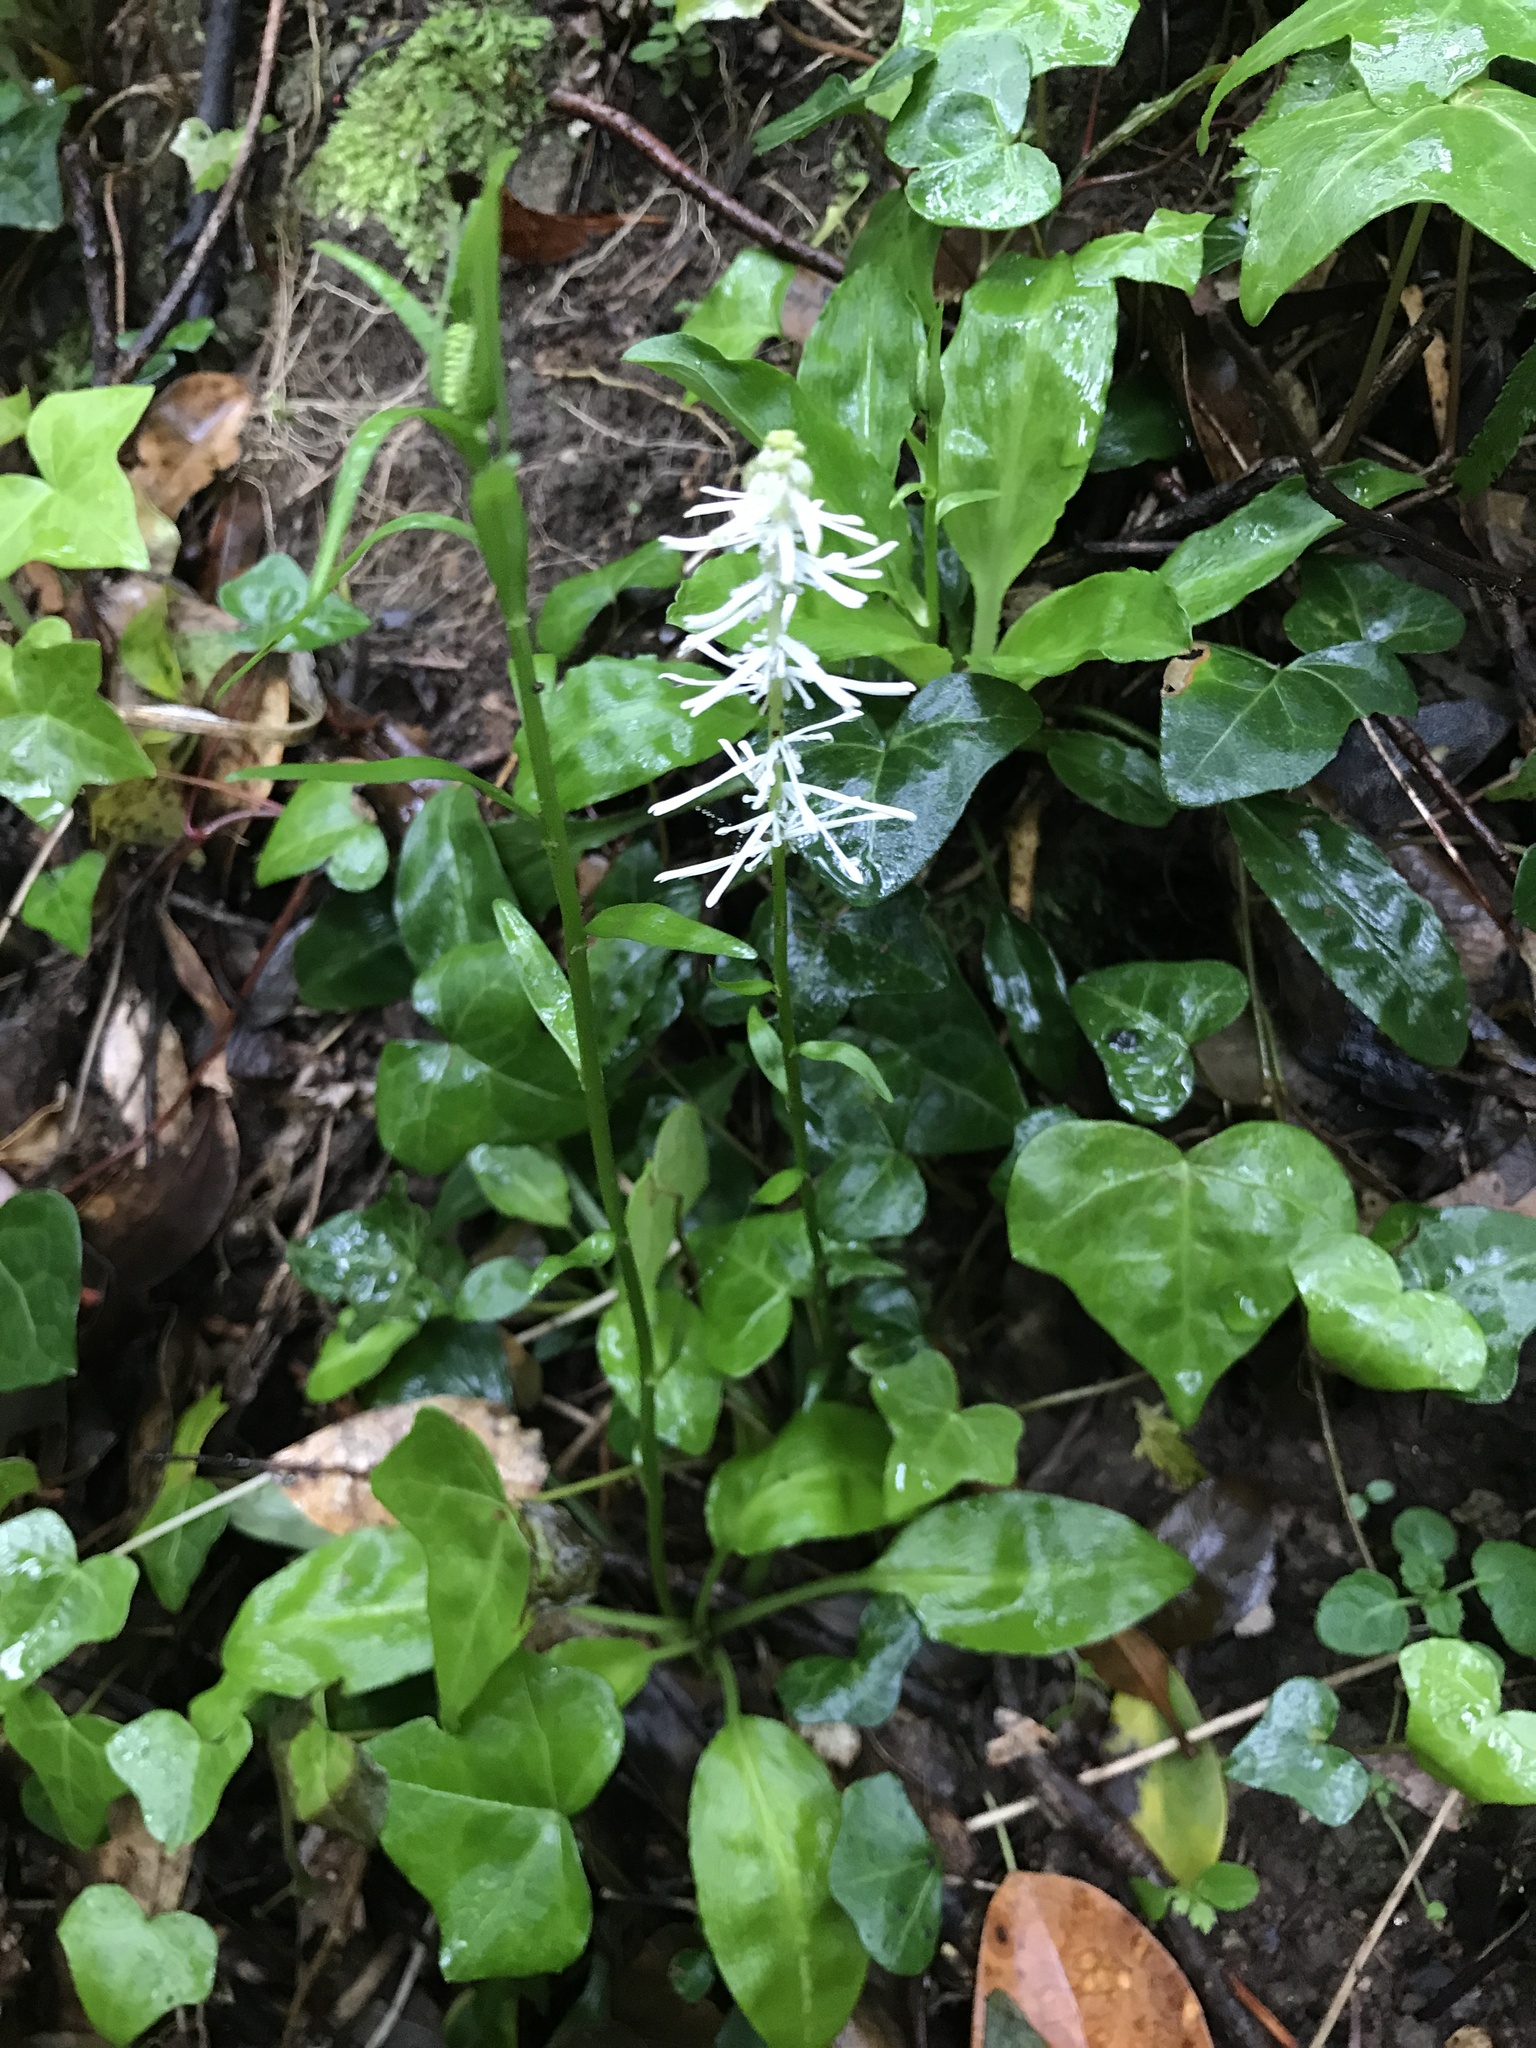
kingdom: Plantae
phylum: Tracheophyta
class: Liliopsida
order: Liliales
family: Melanthiaceae
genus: Chamaelirium
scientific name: Chamaelirium japonicum
